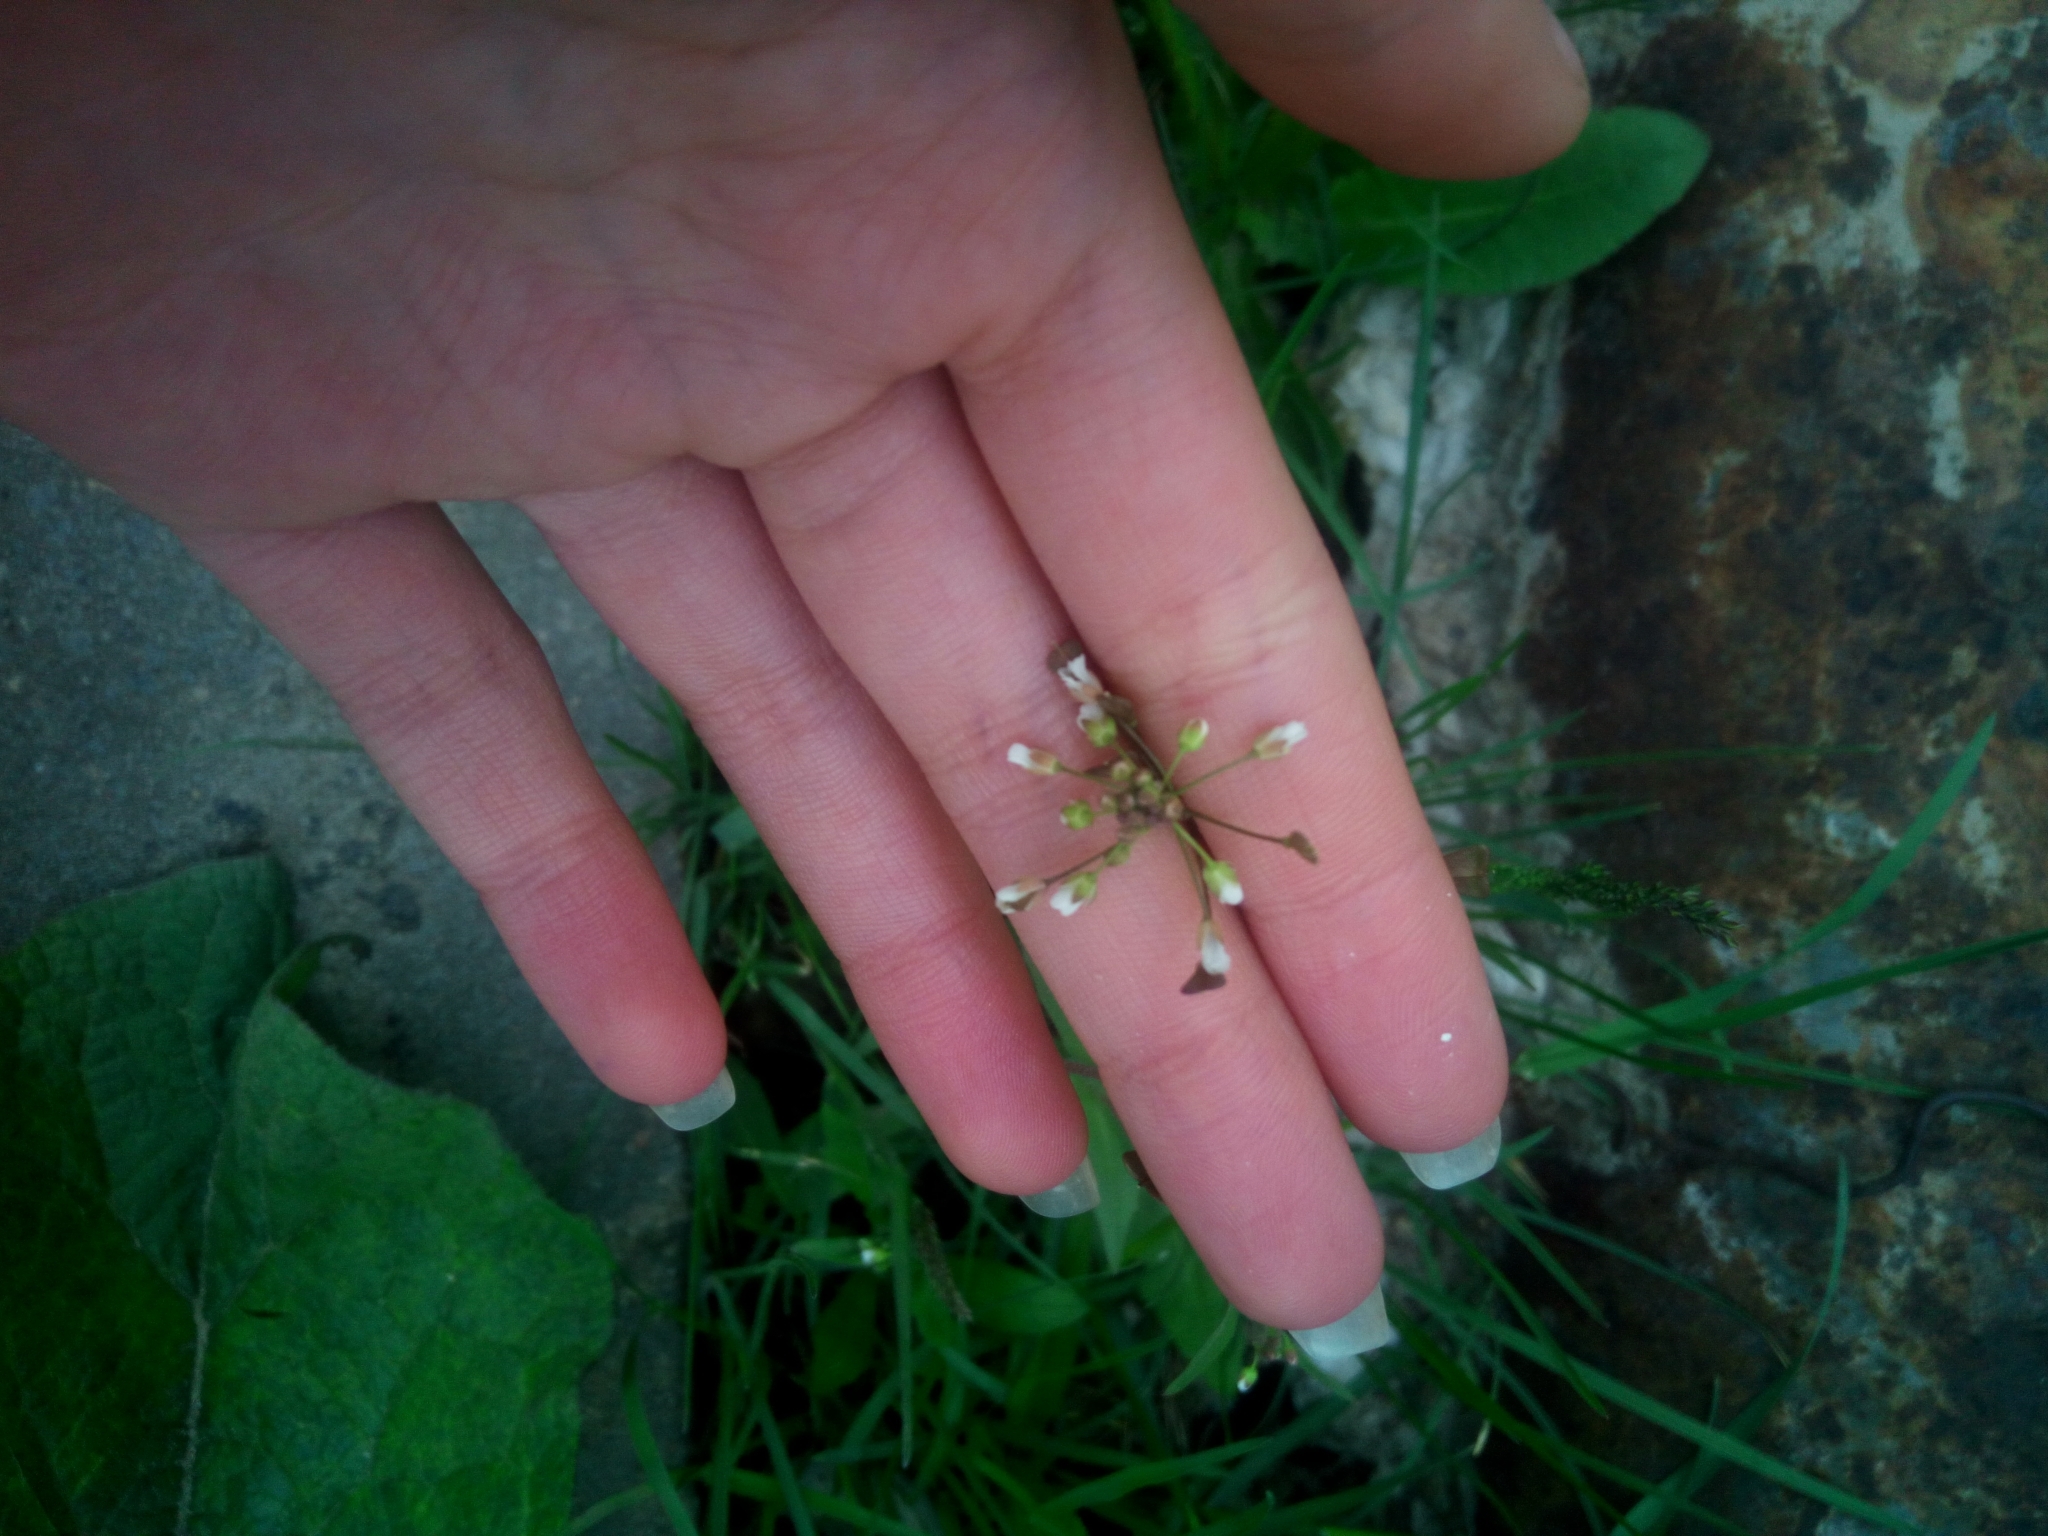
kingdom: Plantae
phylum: Tracheophyta
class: Magnoliopsida
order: Brassicales
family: Brassicaceae
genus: Capsella
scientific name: Capsella bursa-pastoris
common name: Shepherd's purse
